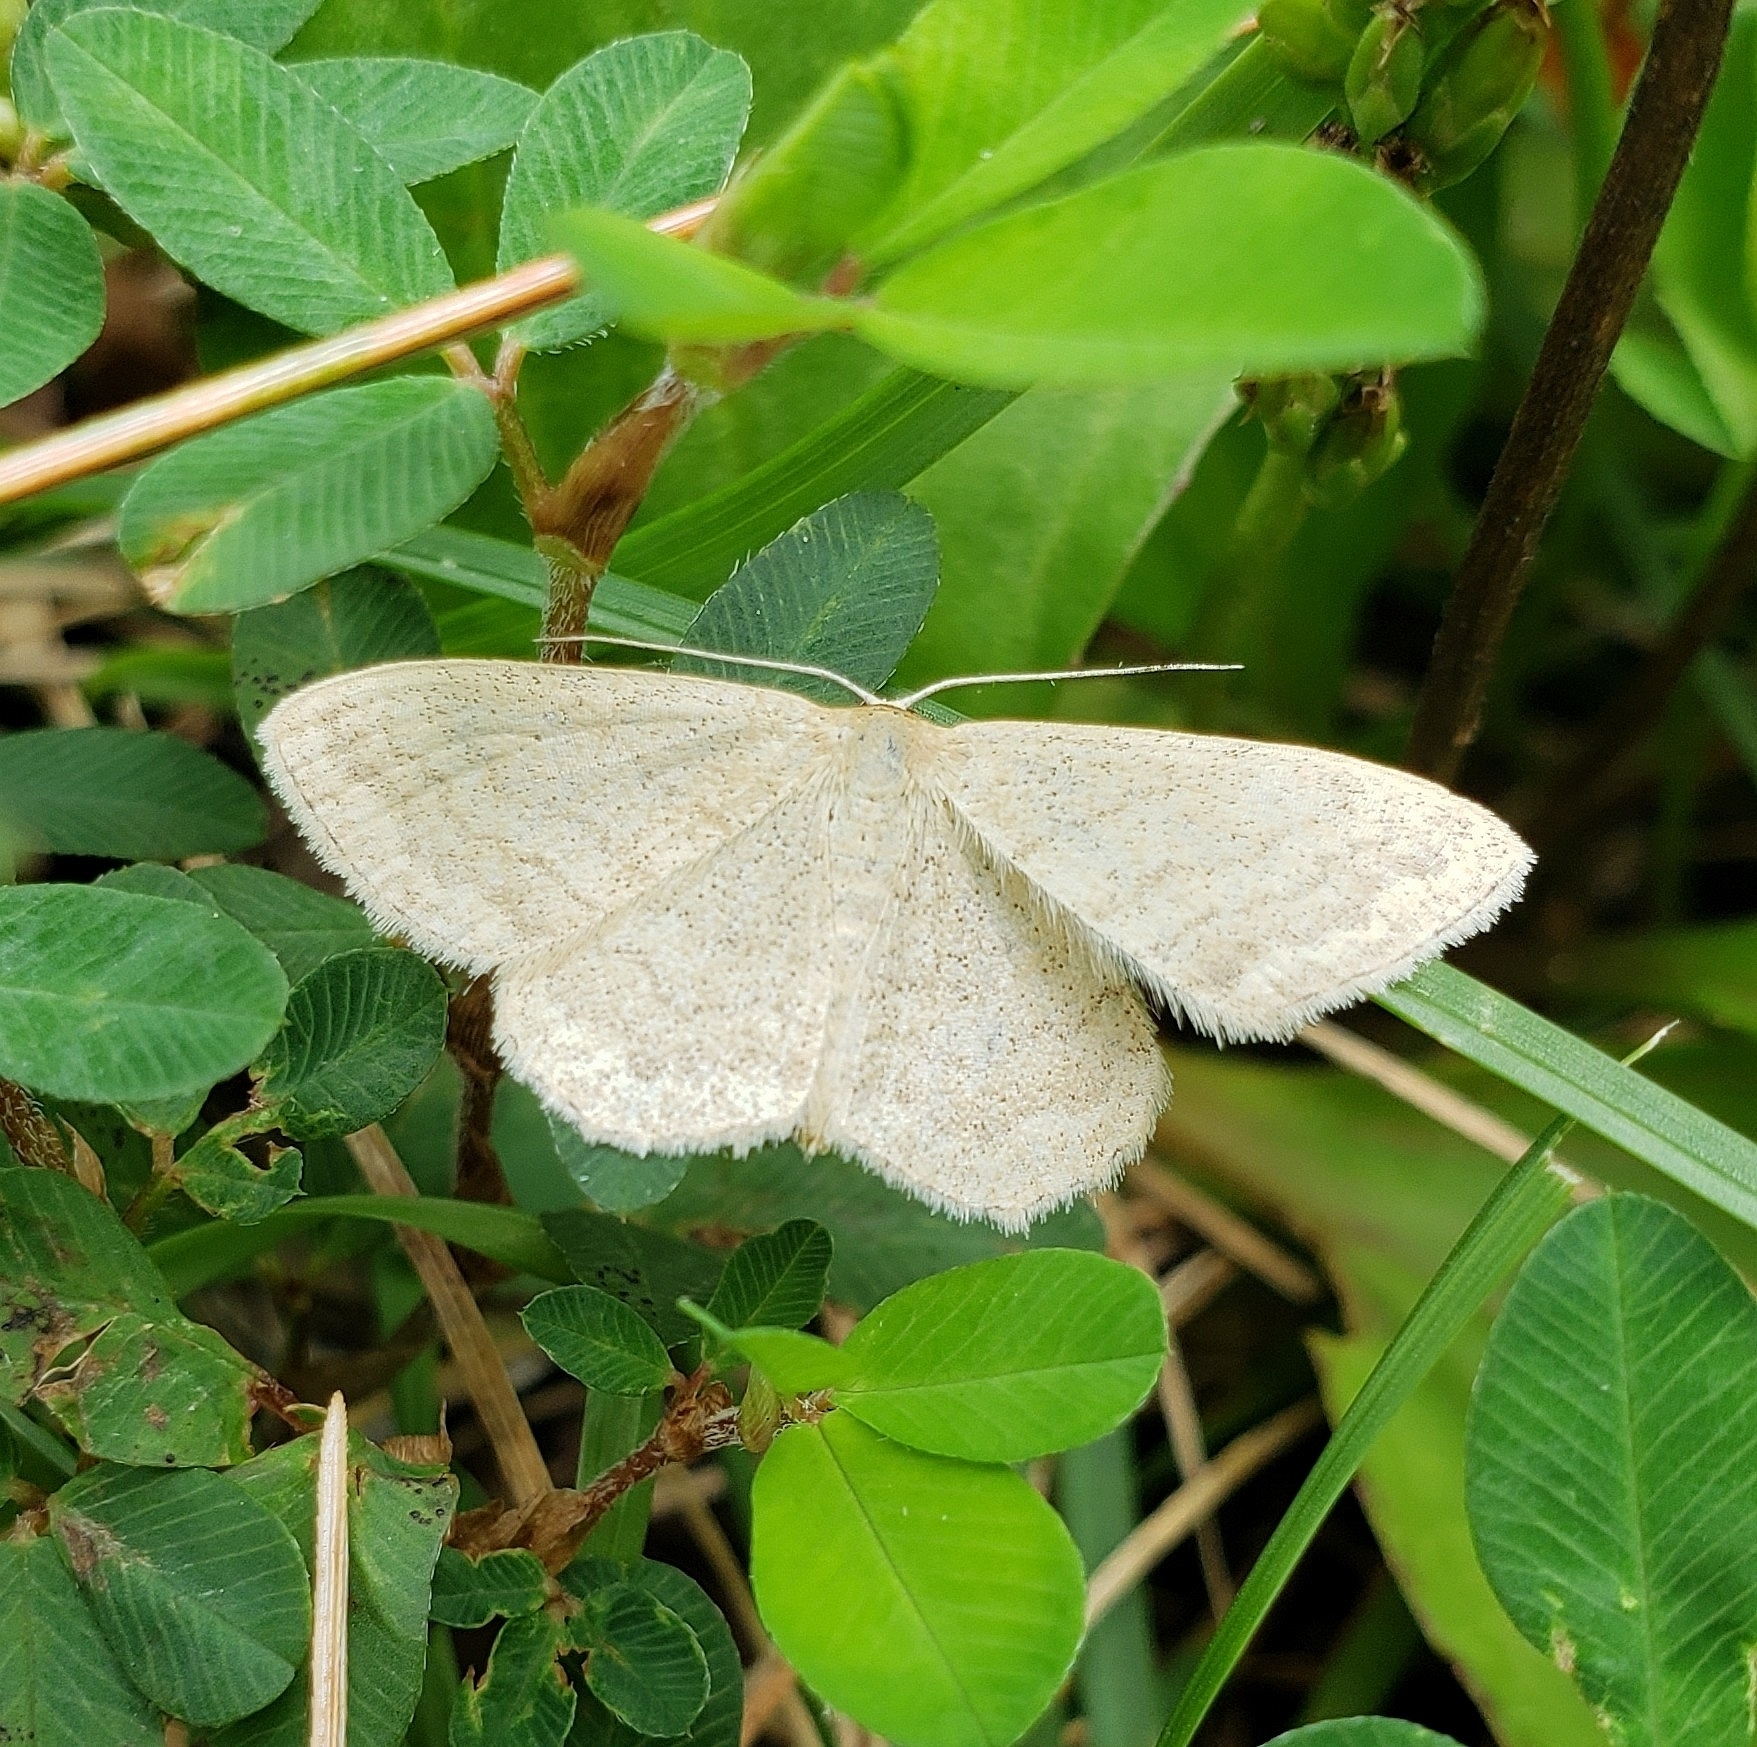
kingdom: Animalia
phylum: Arthropoda
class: Insecta
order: Lepidoptera
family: Geometridae
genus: Scopula
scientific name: Scopula inductata
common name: Soft-lined wave
